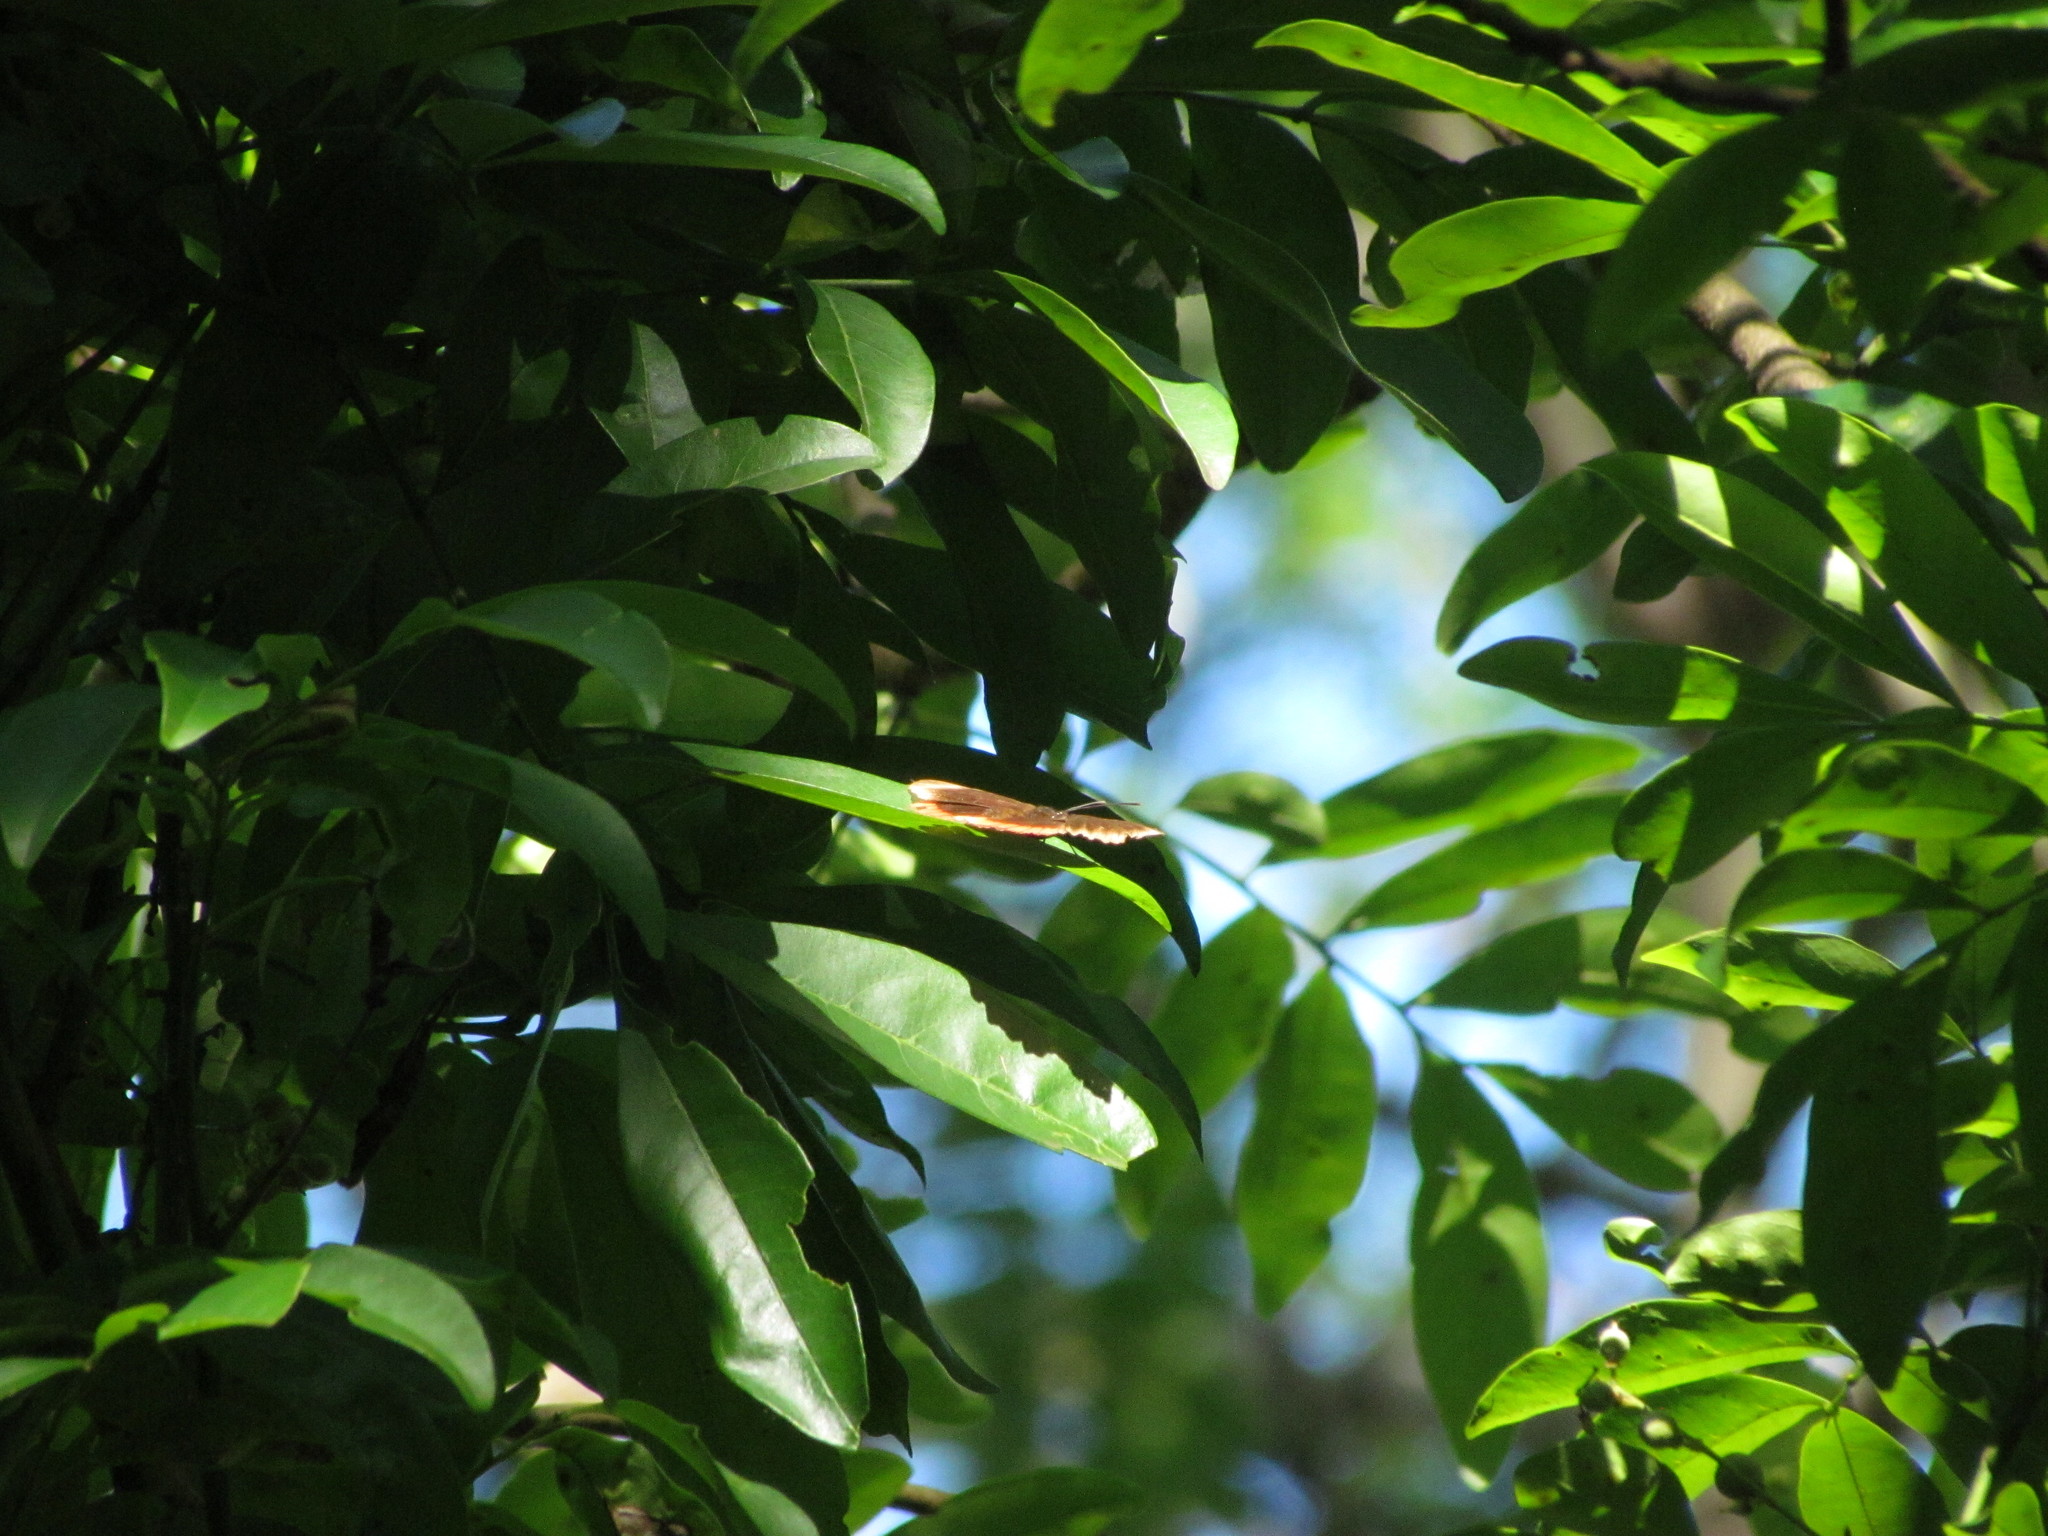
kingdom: Animalia
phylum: Arthropoda
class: Insecta
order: Lepidoptera
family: Sesiidae
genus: Sesia
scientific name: Sesia Biblis hyperia
